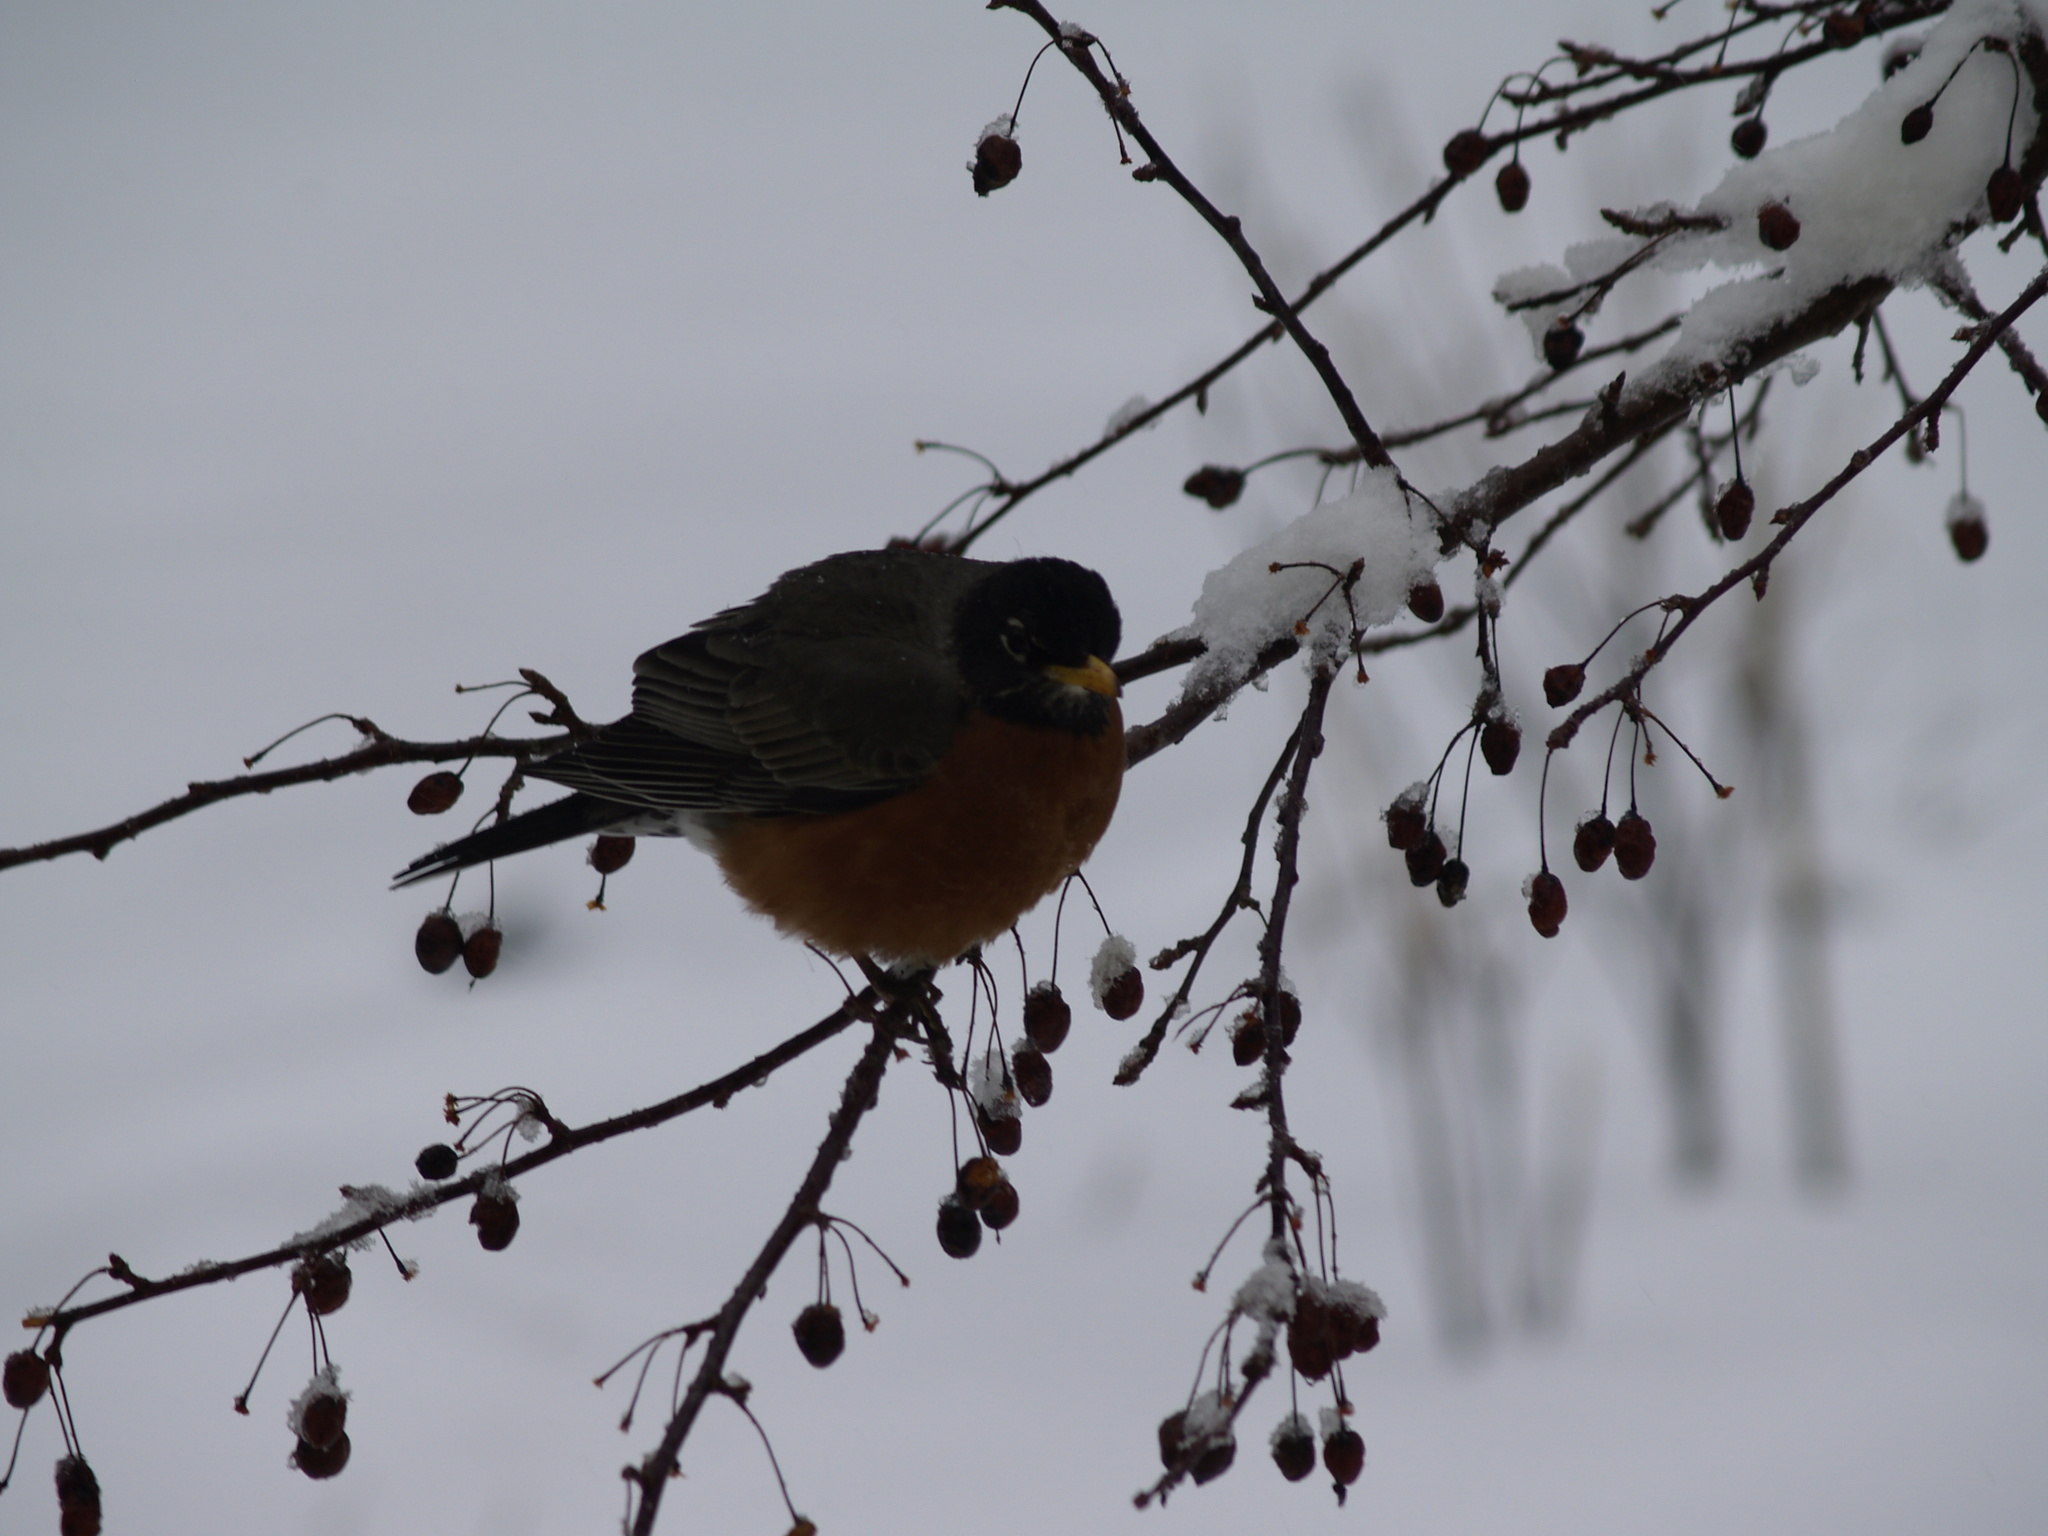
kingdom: Animalia
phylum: Chordata
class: Aves
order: Passeriformes
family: Turdidae
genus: Turdus
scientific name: Turdus migratorius
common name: American robin
